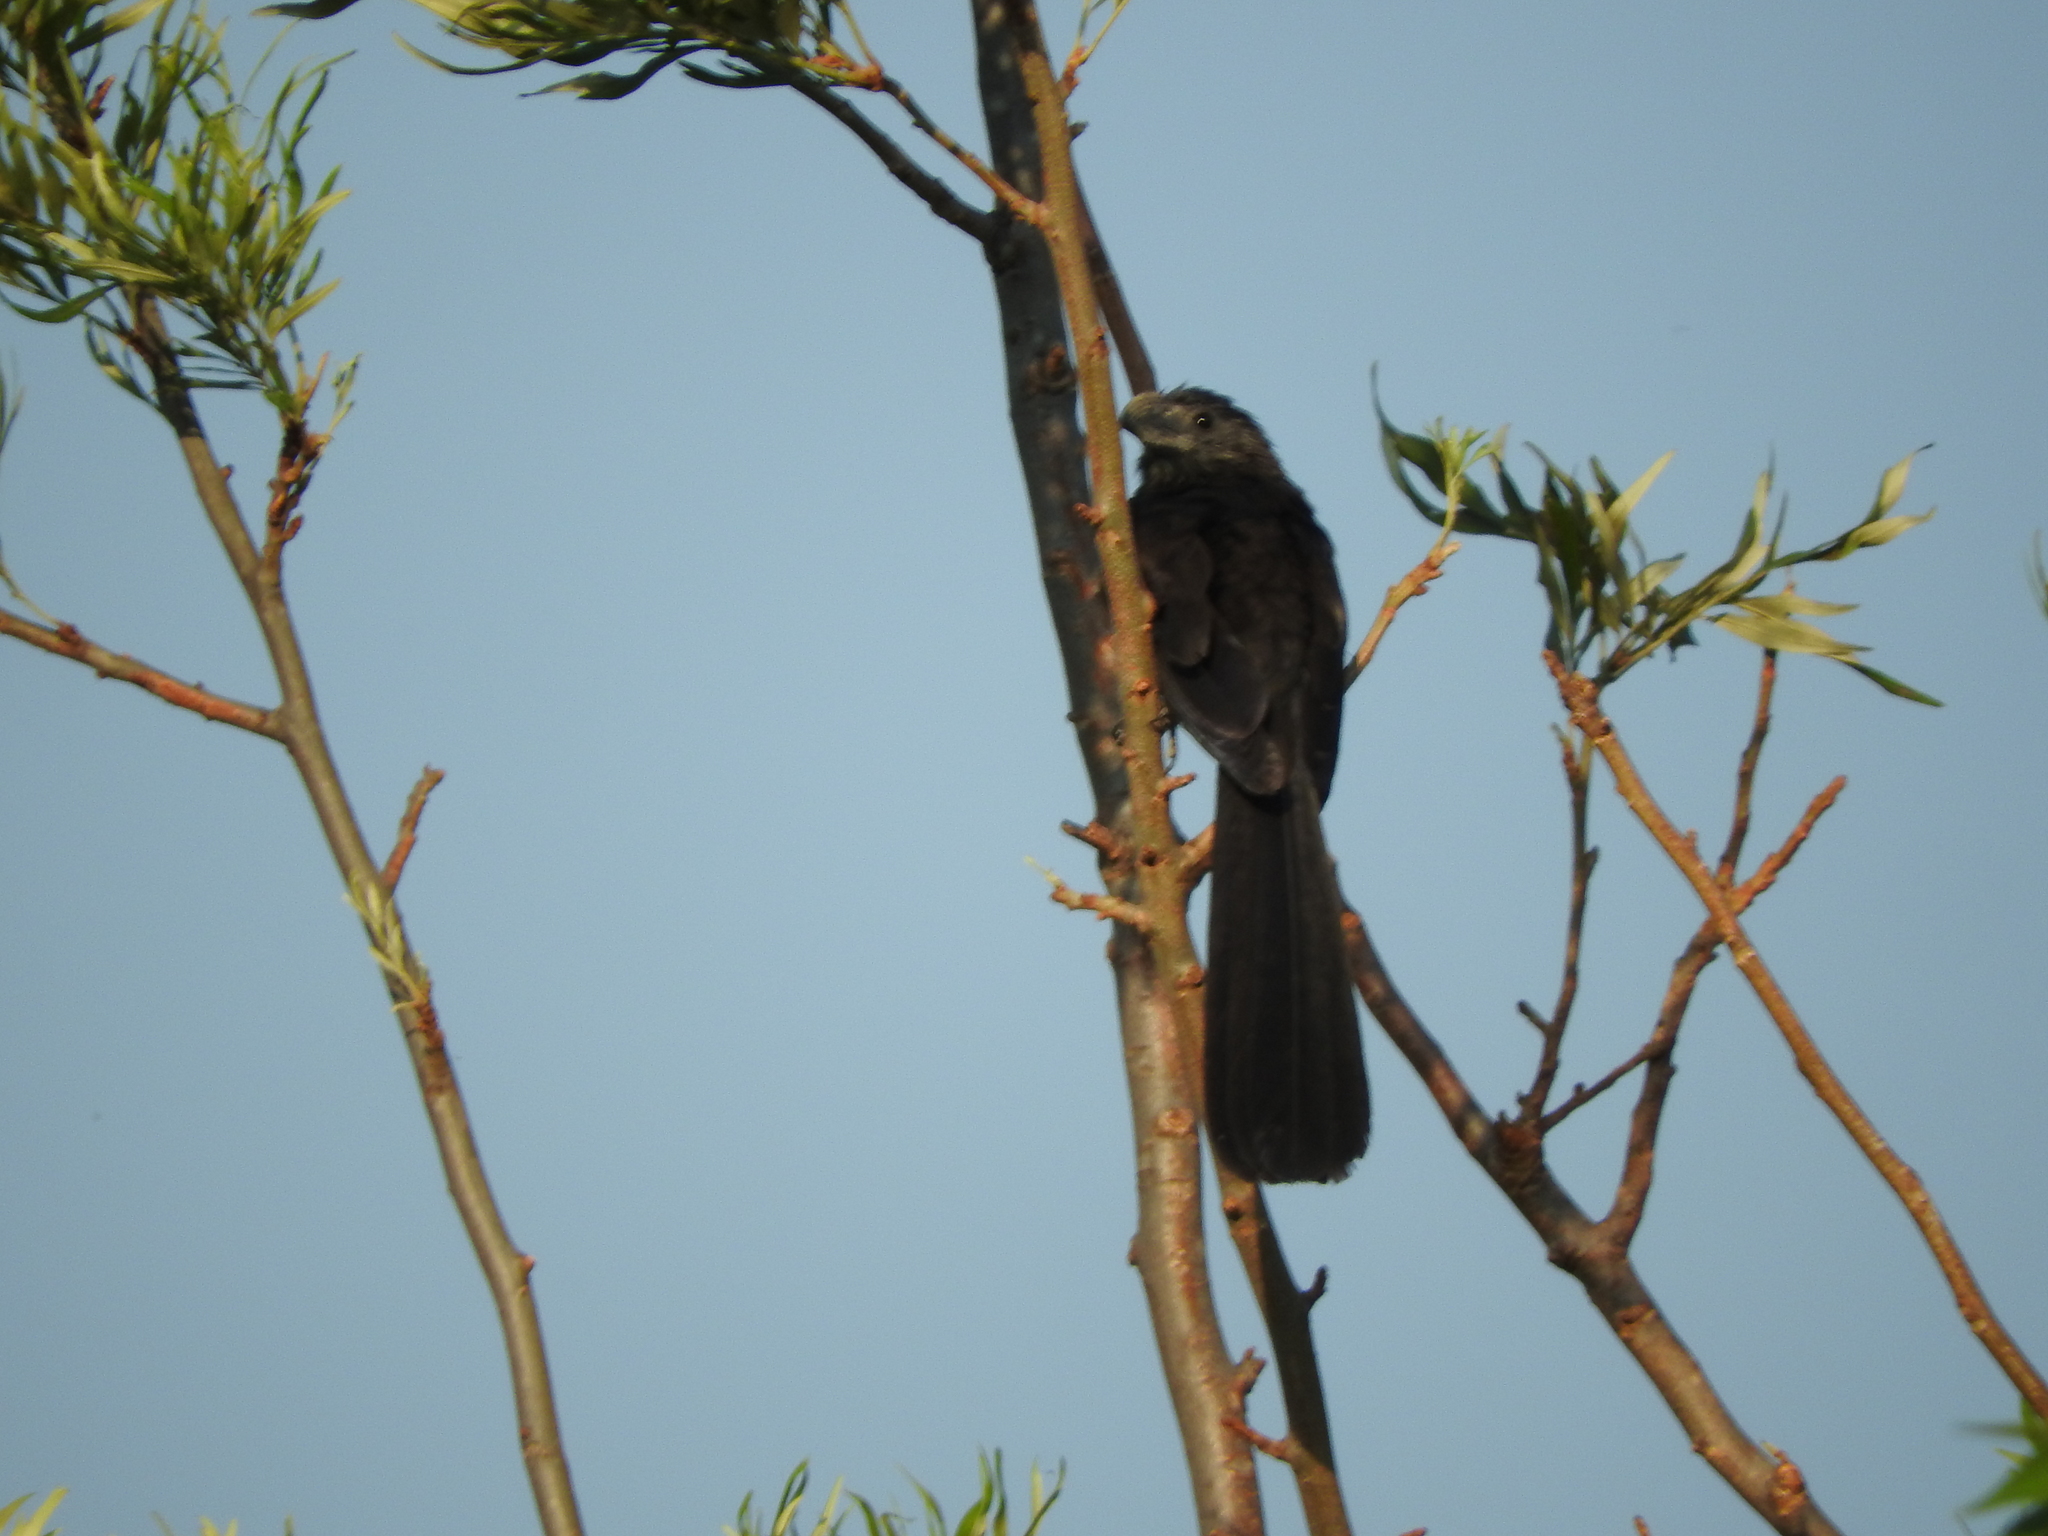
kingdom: Animalia
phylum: Chordata
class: Aves
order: Cuculiformes
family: Cuculidae
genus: Crotophaga
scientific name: Crotophaga sulcirostris
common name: Groove-billed ani
